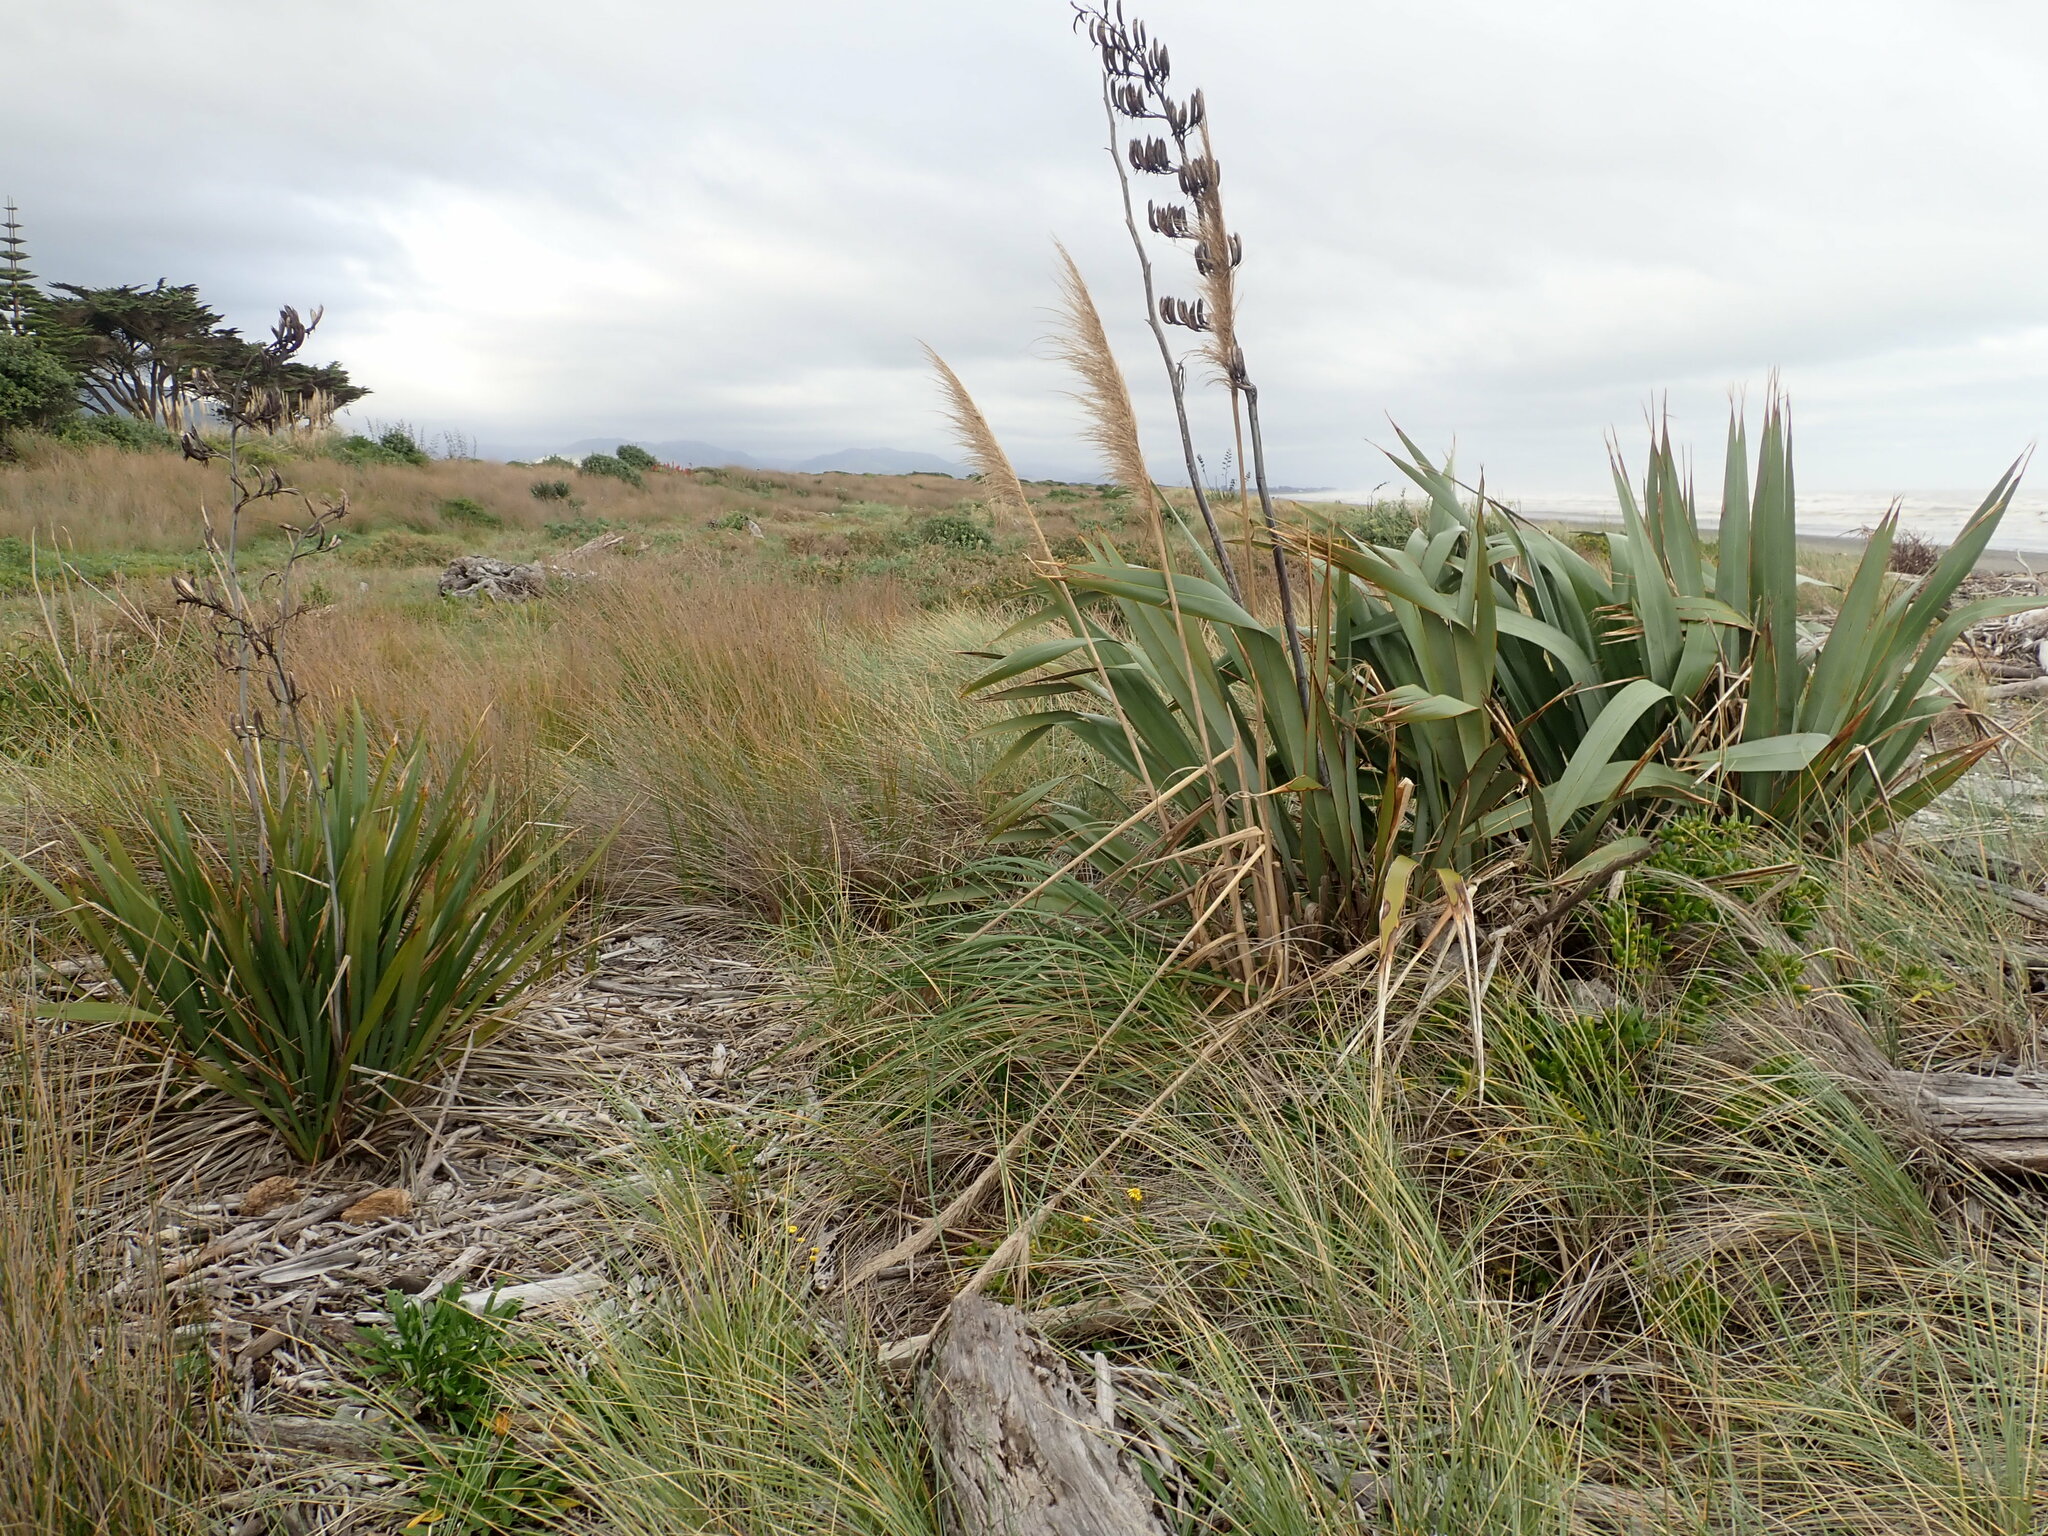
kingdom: Plantae
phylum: Tracheophyta
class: Liliopsida
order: Asparagales
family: Asphodelaceae
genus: Phormium
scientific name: Phormium tenax
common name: New zealand flax
